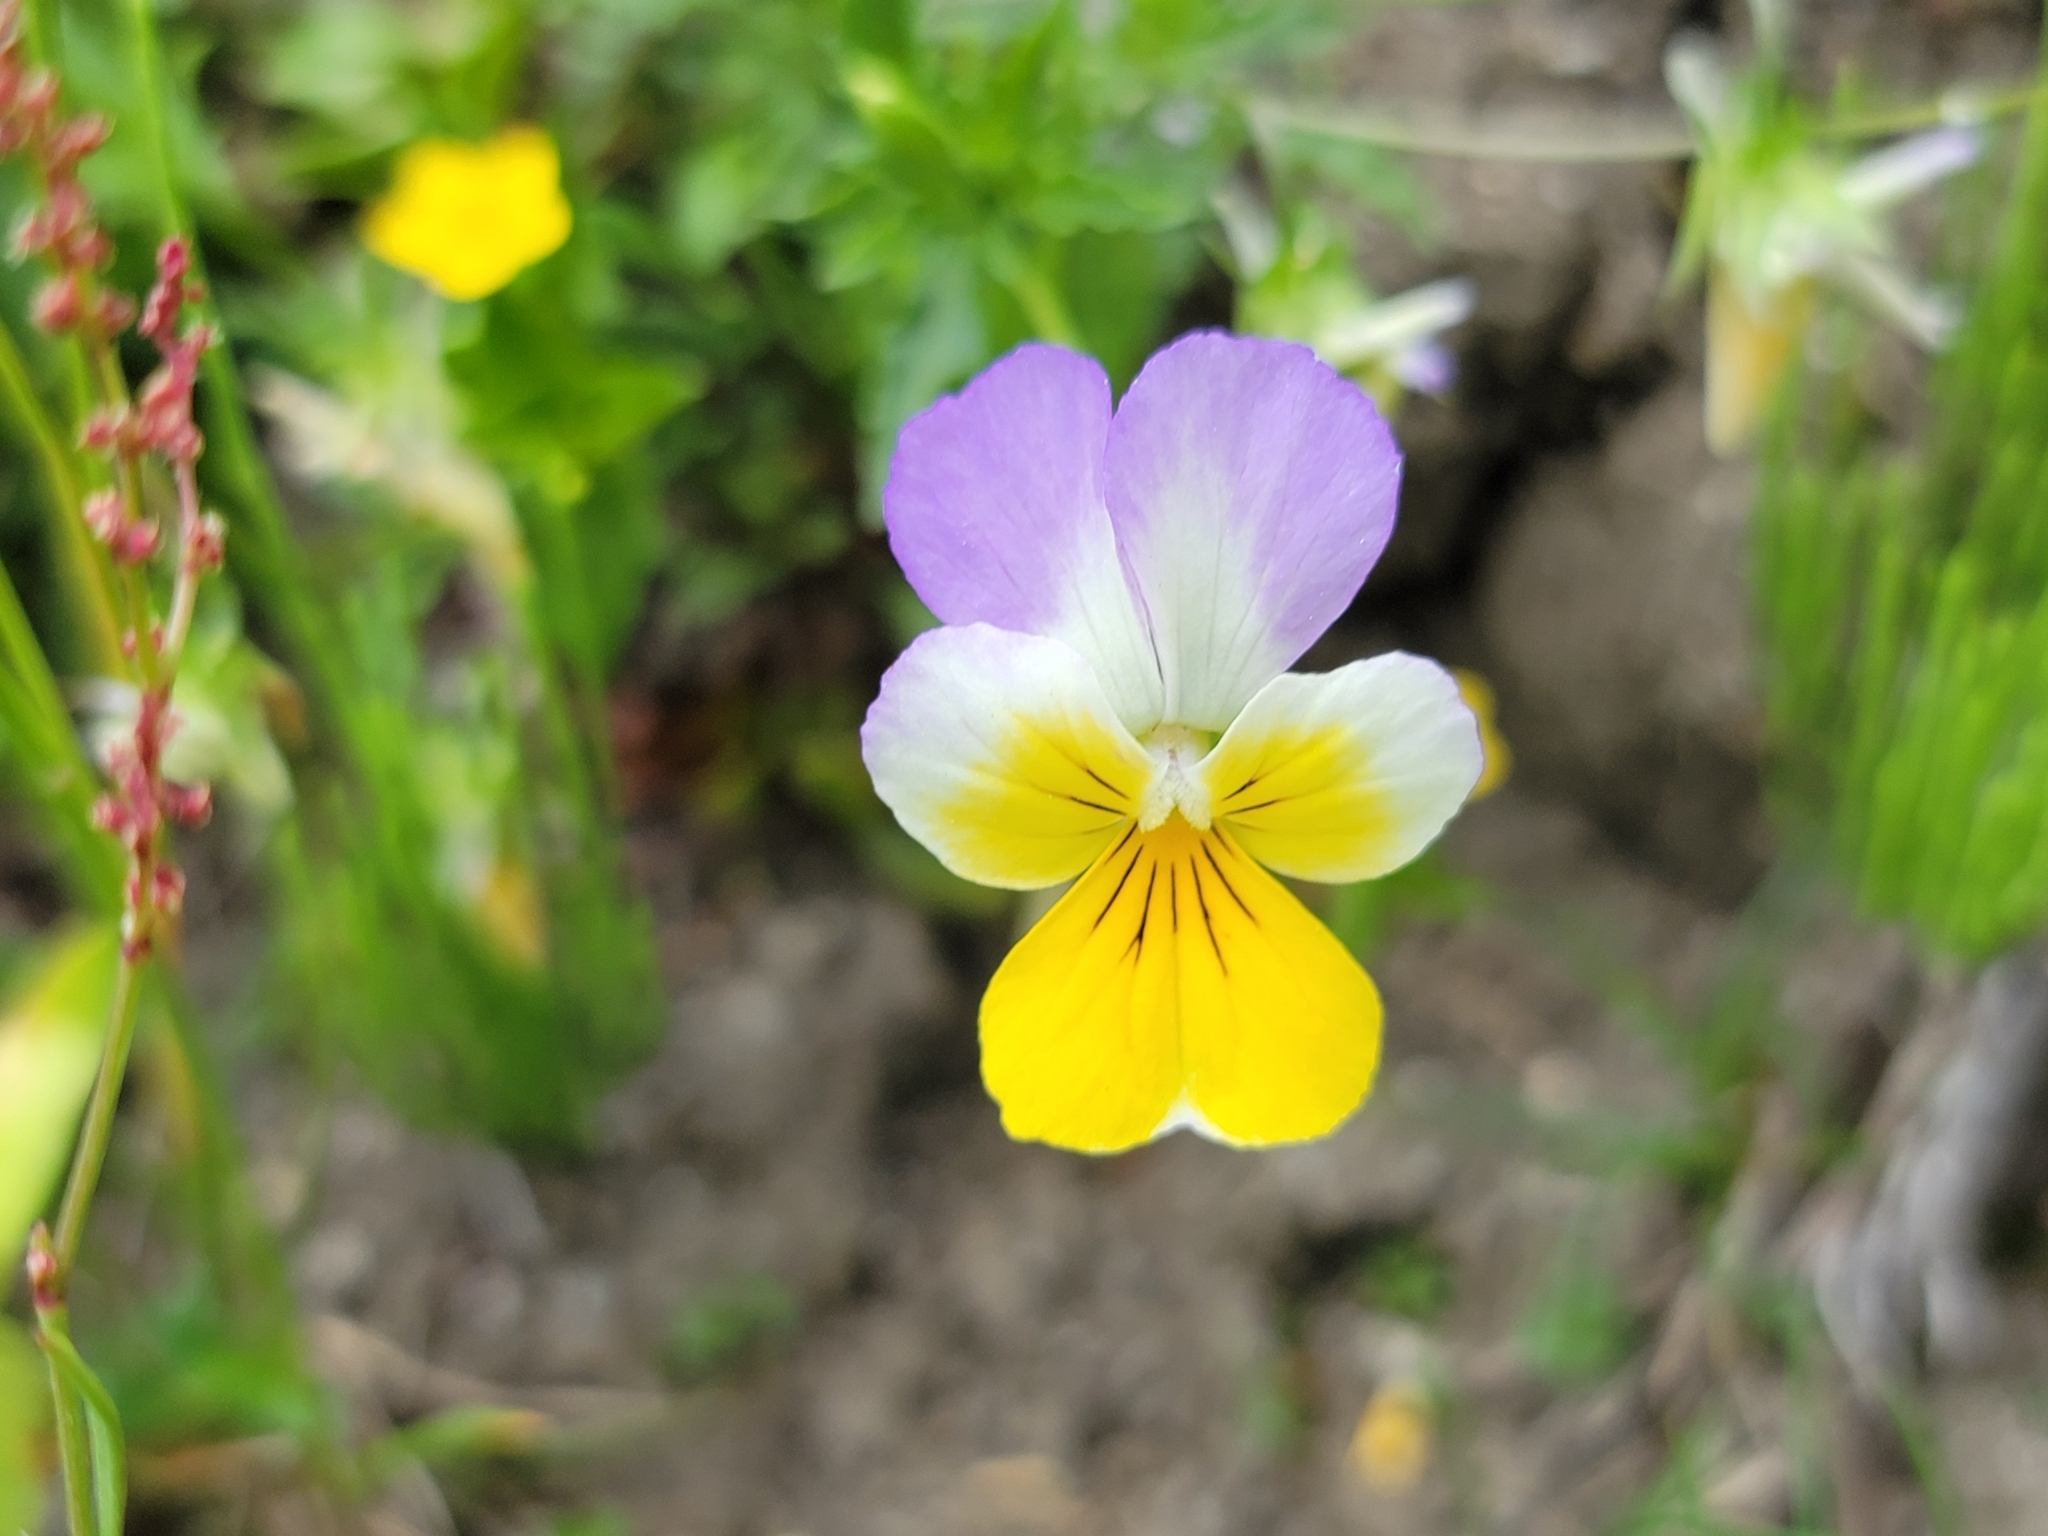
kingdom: Plantae
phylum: Tracheophyta
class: Magnoliopsida
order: Malpighiales
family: Violaceae
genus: Viola
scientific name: Viola tricolor
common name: Pansy
